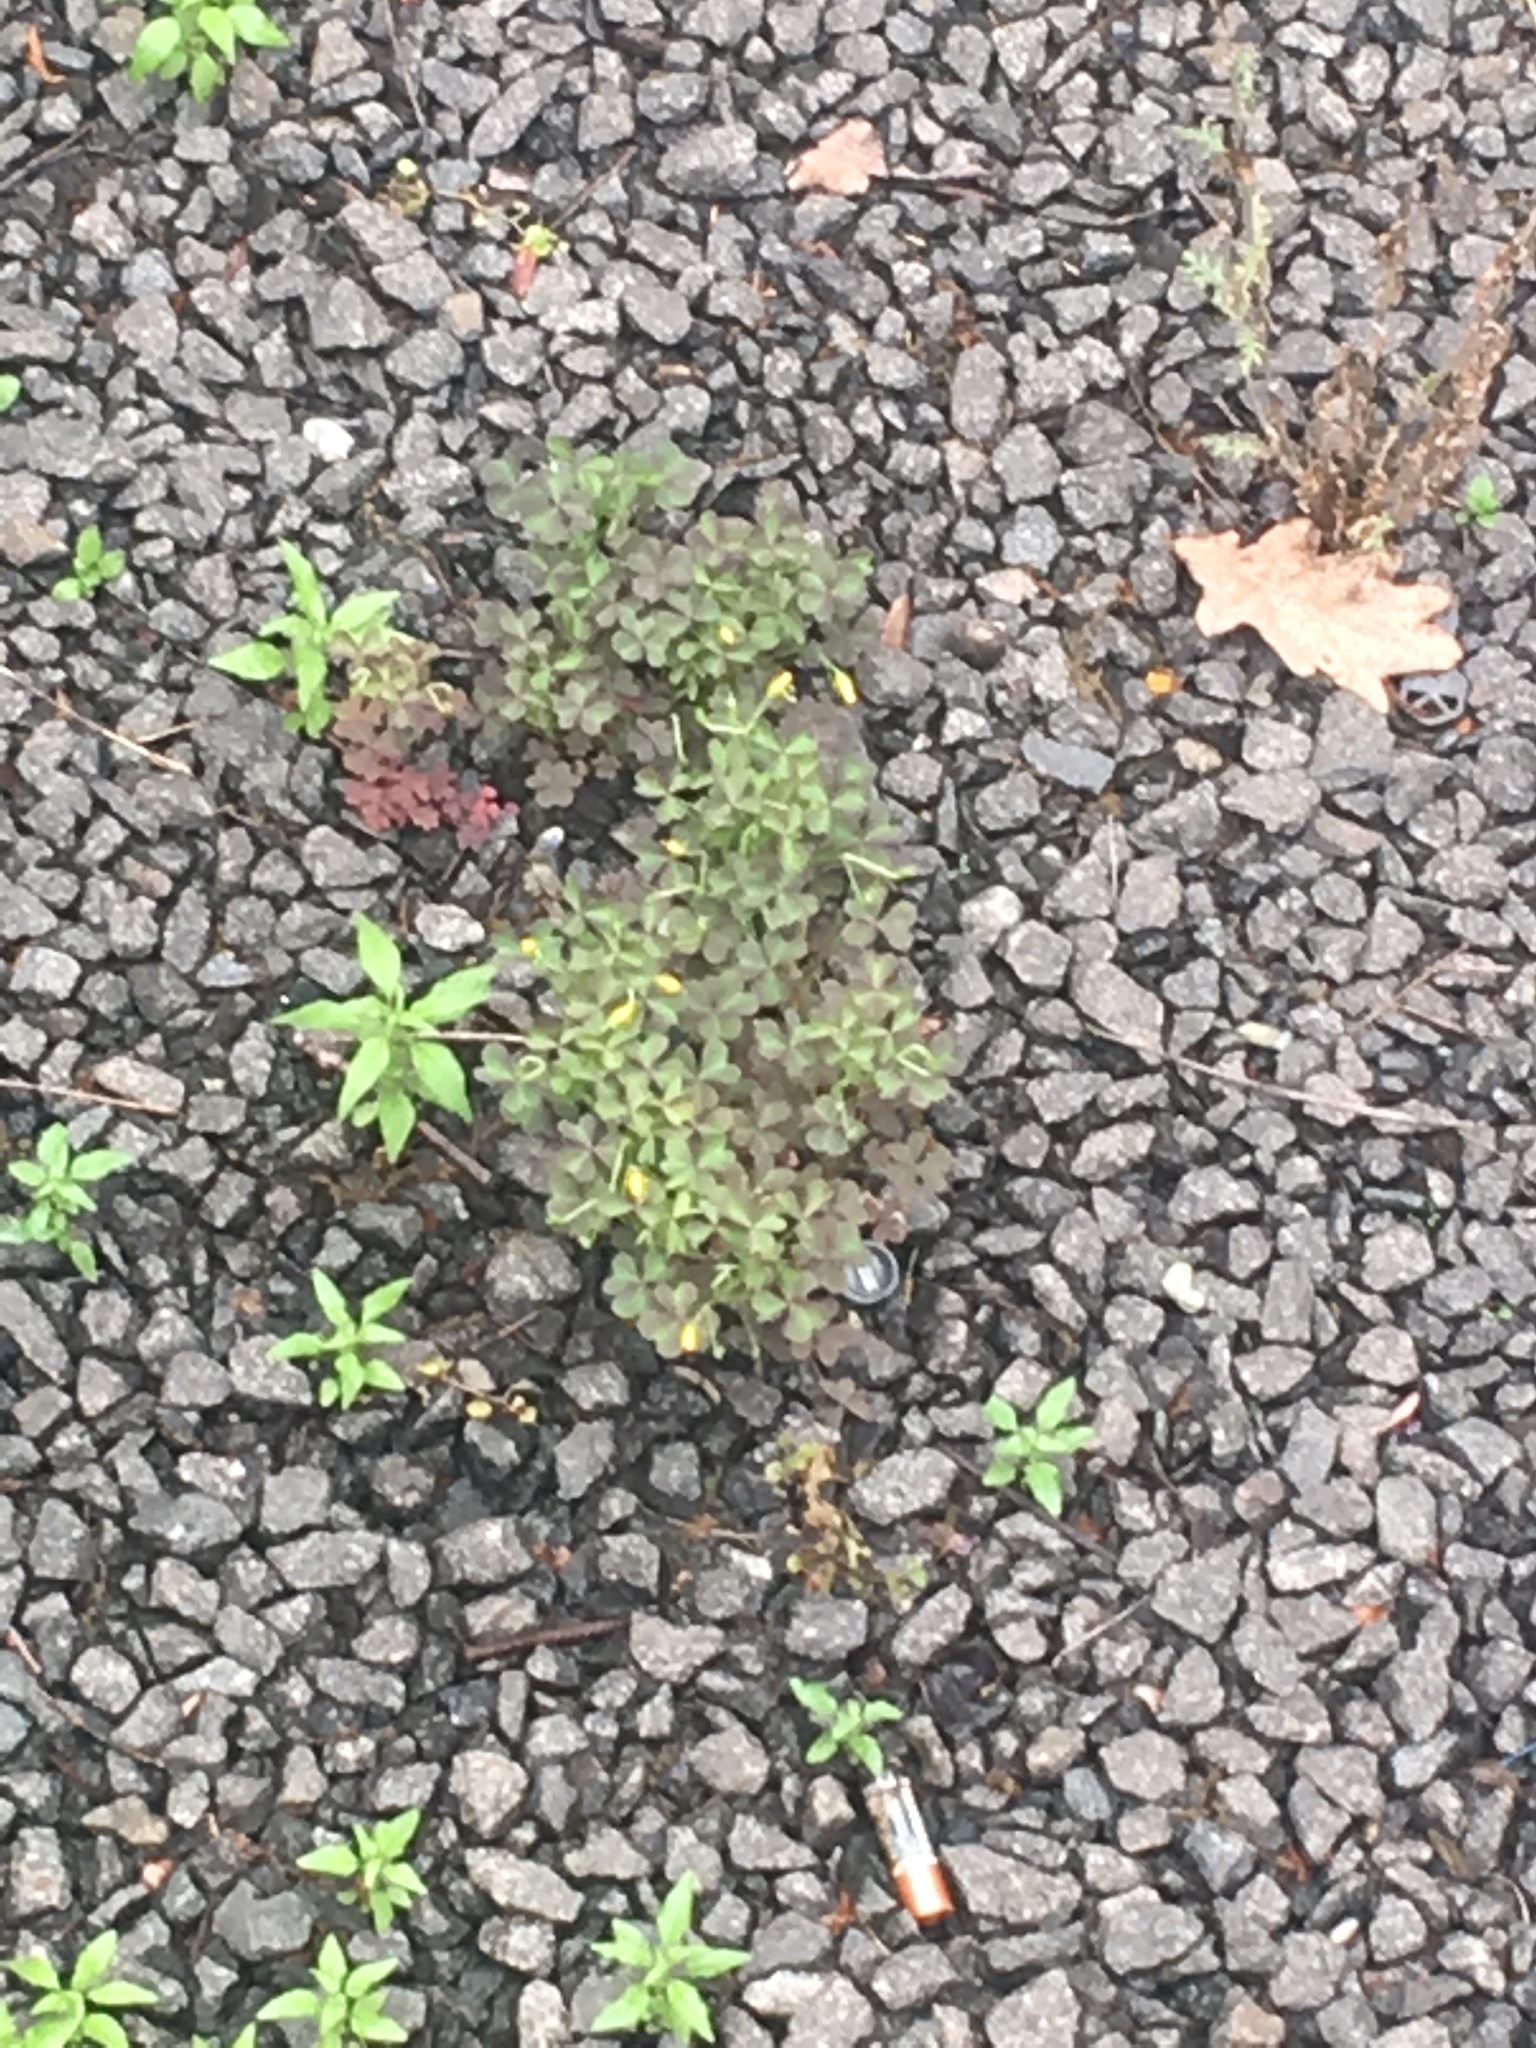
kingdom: Plantae
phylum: Tracheophyta
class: Magnoliopsida
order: Oxalidales
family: Oxalidaceae
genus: Oxalis
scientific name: Oxalis corniculata
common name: Procumbent yellow-sorrel
